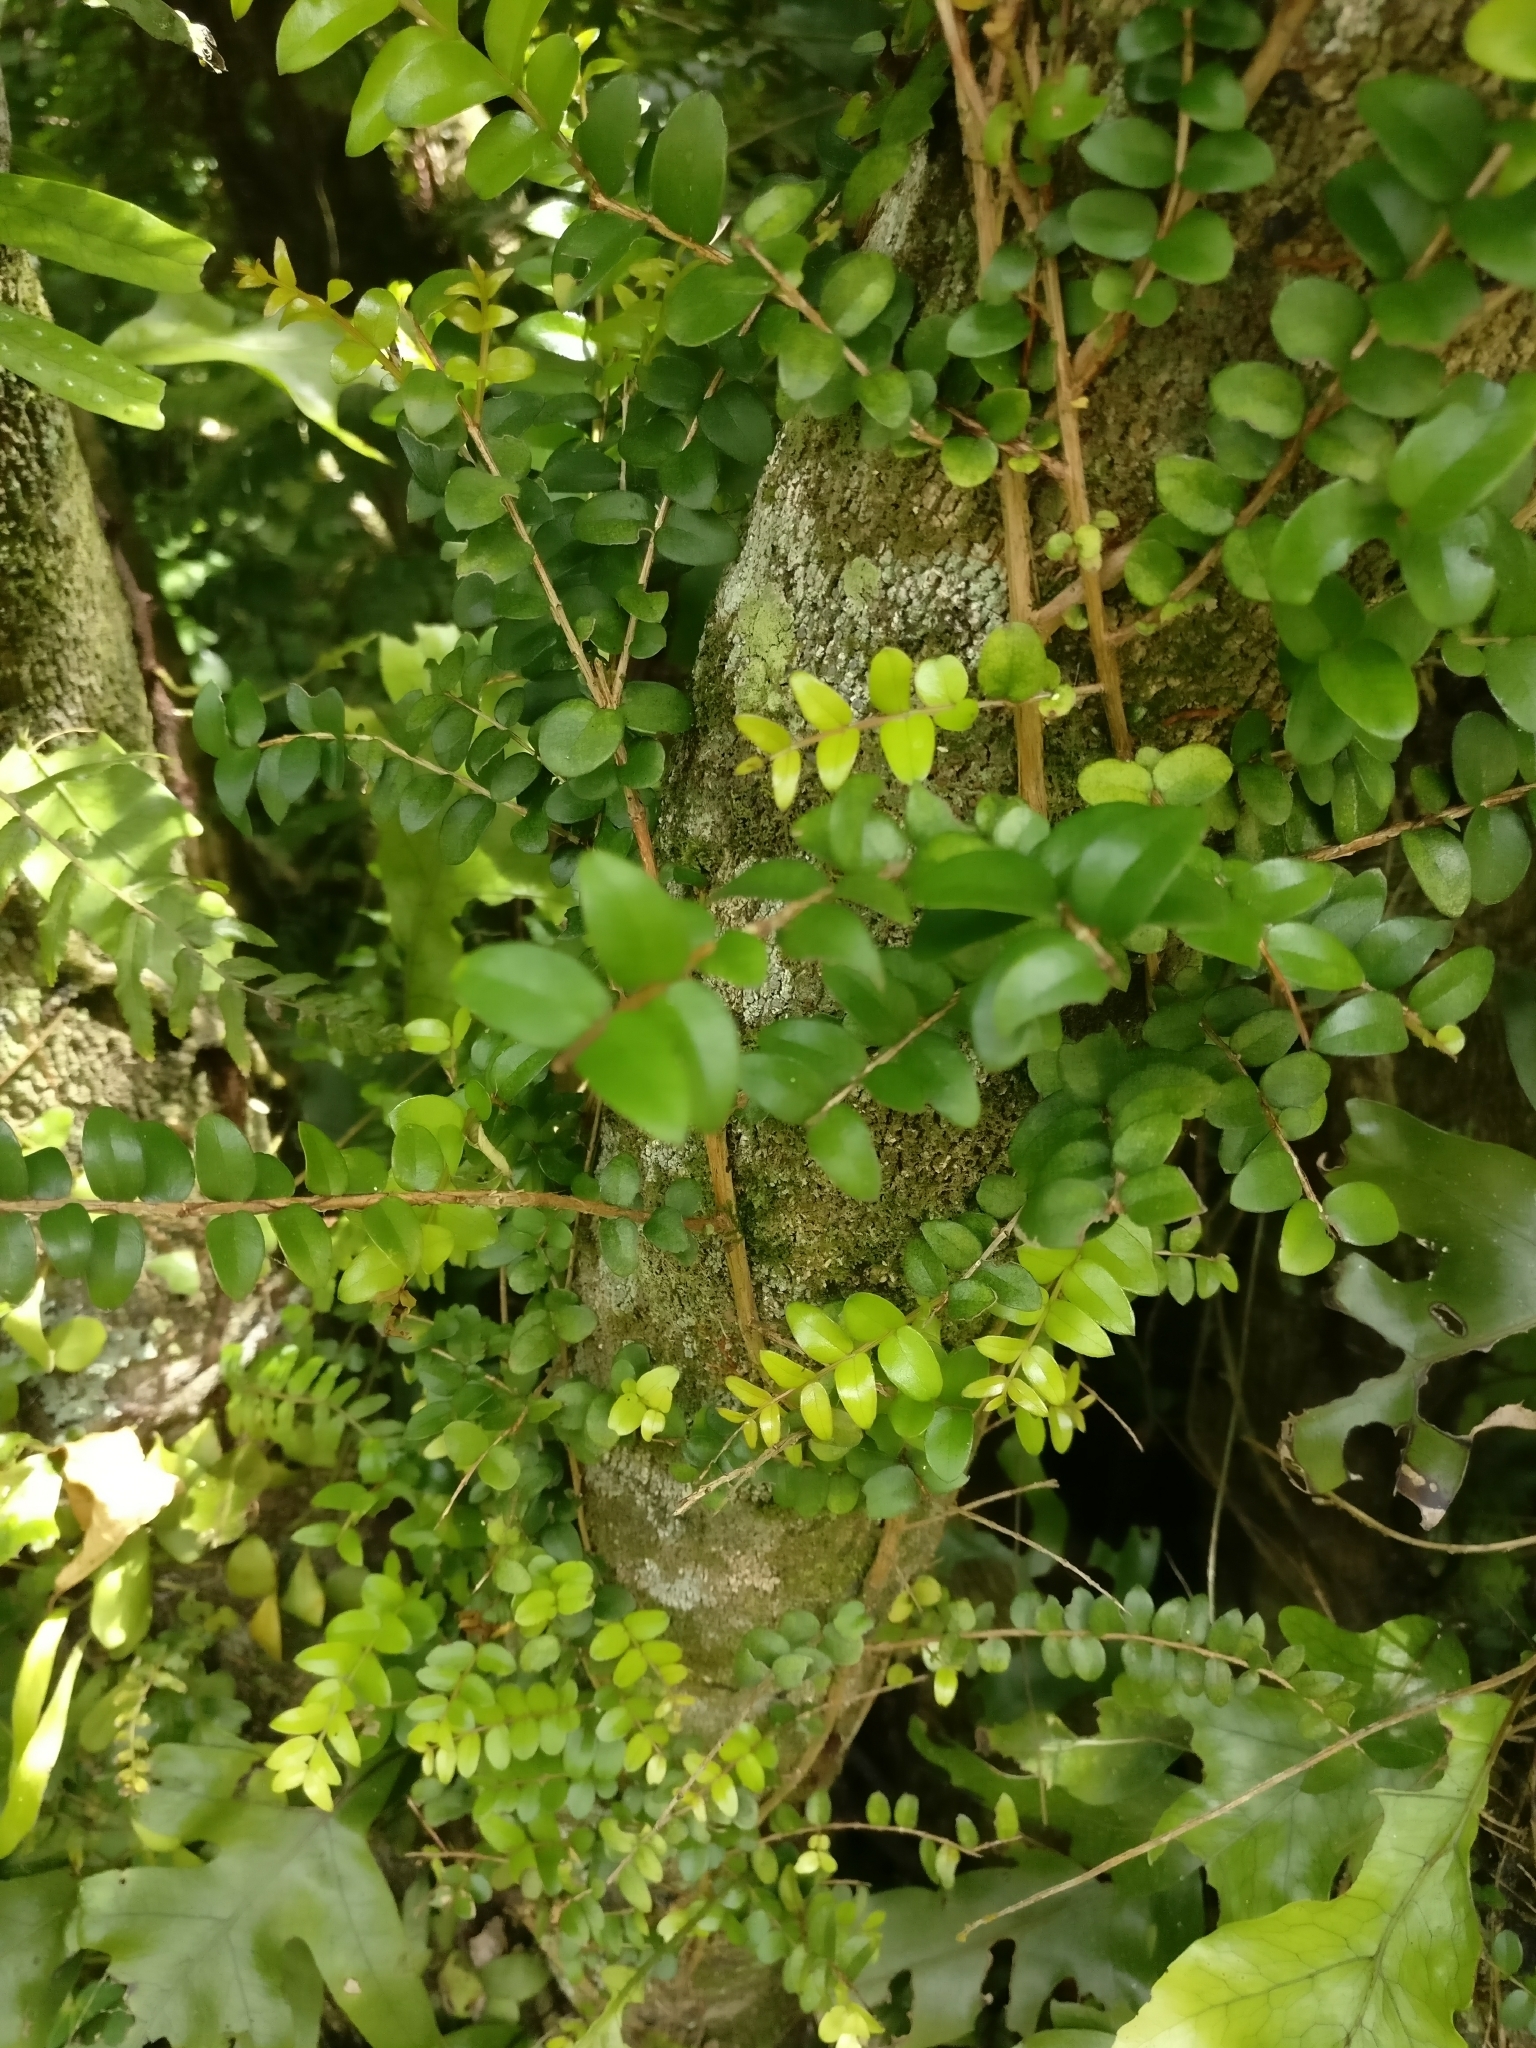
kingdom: Plantae
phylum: Tracheophyta
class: Magnoliopsida
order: Myrtales
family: Myrtaceae
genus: Metrosideros
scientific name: Metrosideros diffusa
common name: Small ratavine
